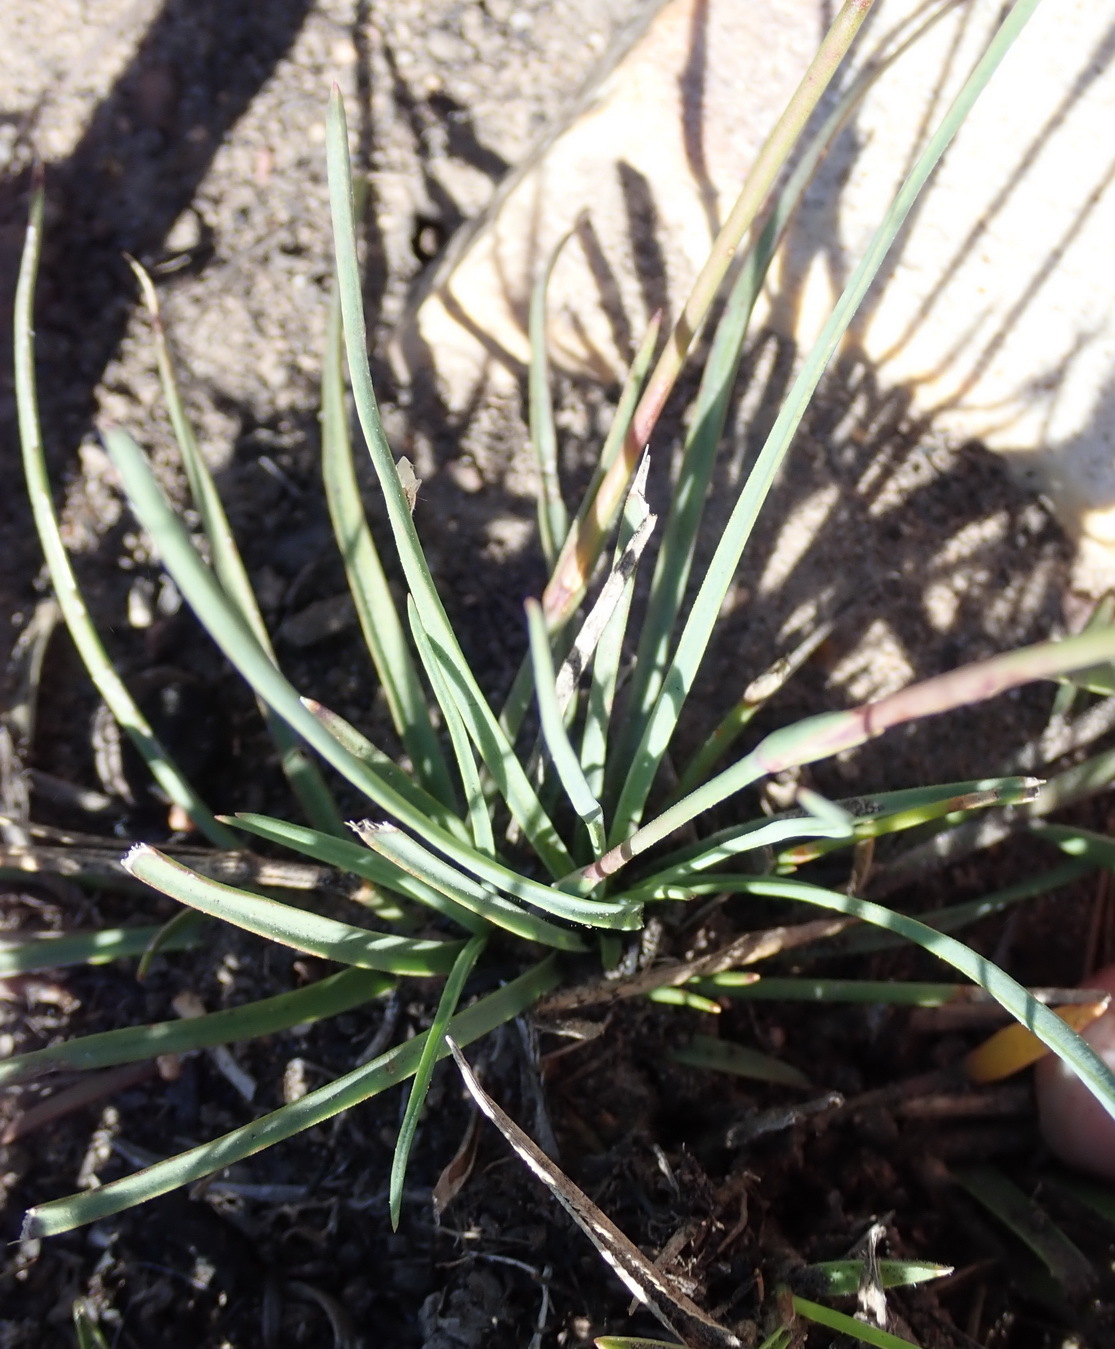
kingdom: Plantae
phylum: Tracheophyta
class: Magnoliopsida
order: Caryophyllales
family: Caryophyllaceae
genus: Dianthus
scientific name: Dianthus basuticus
